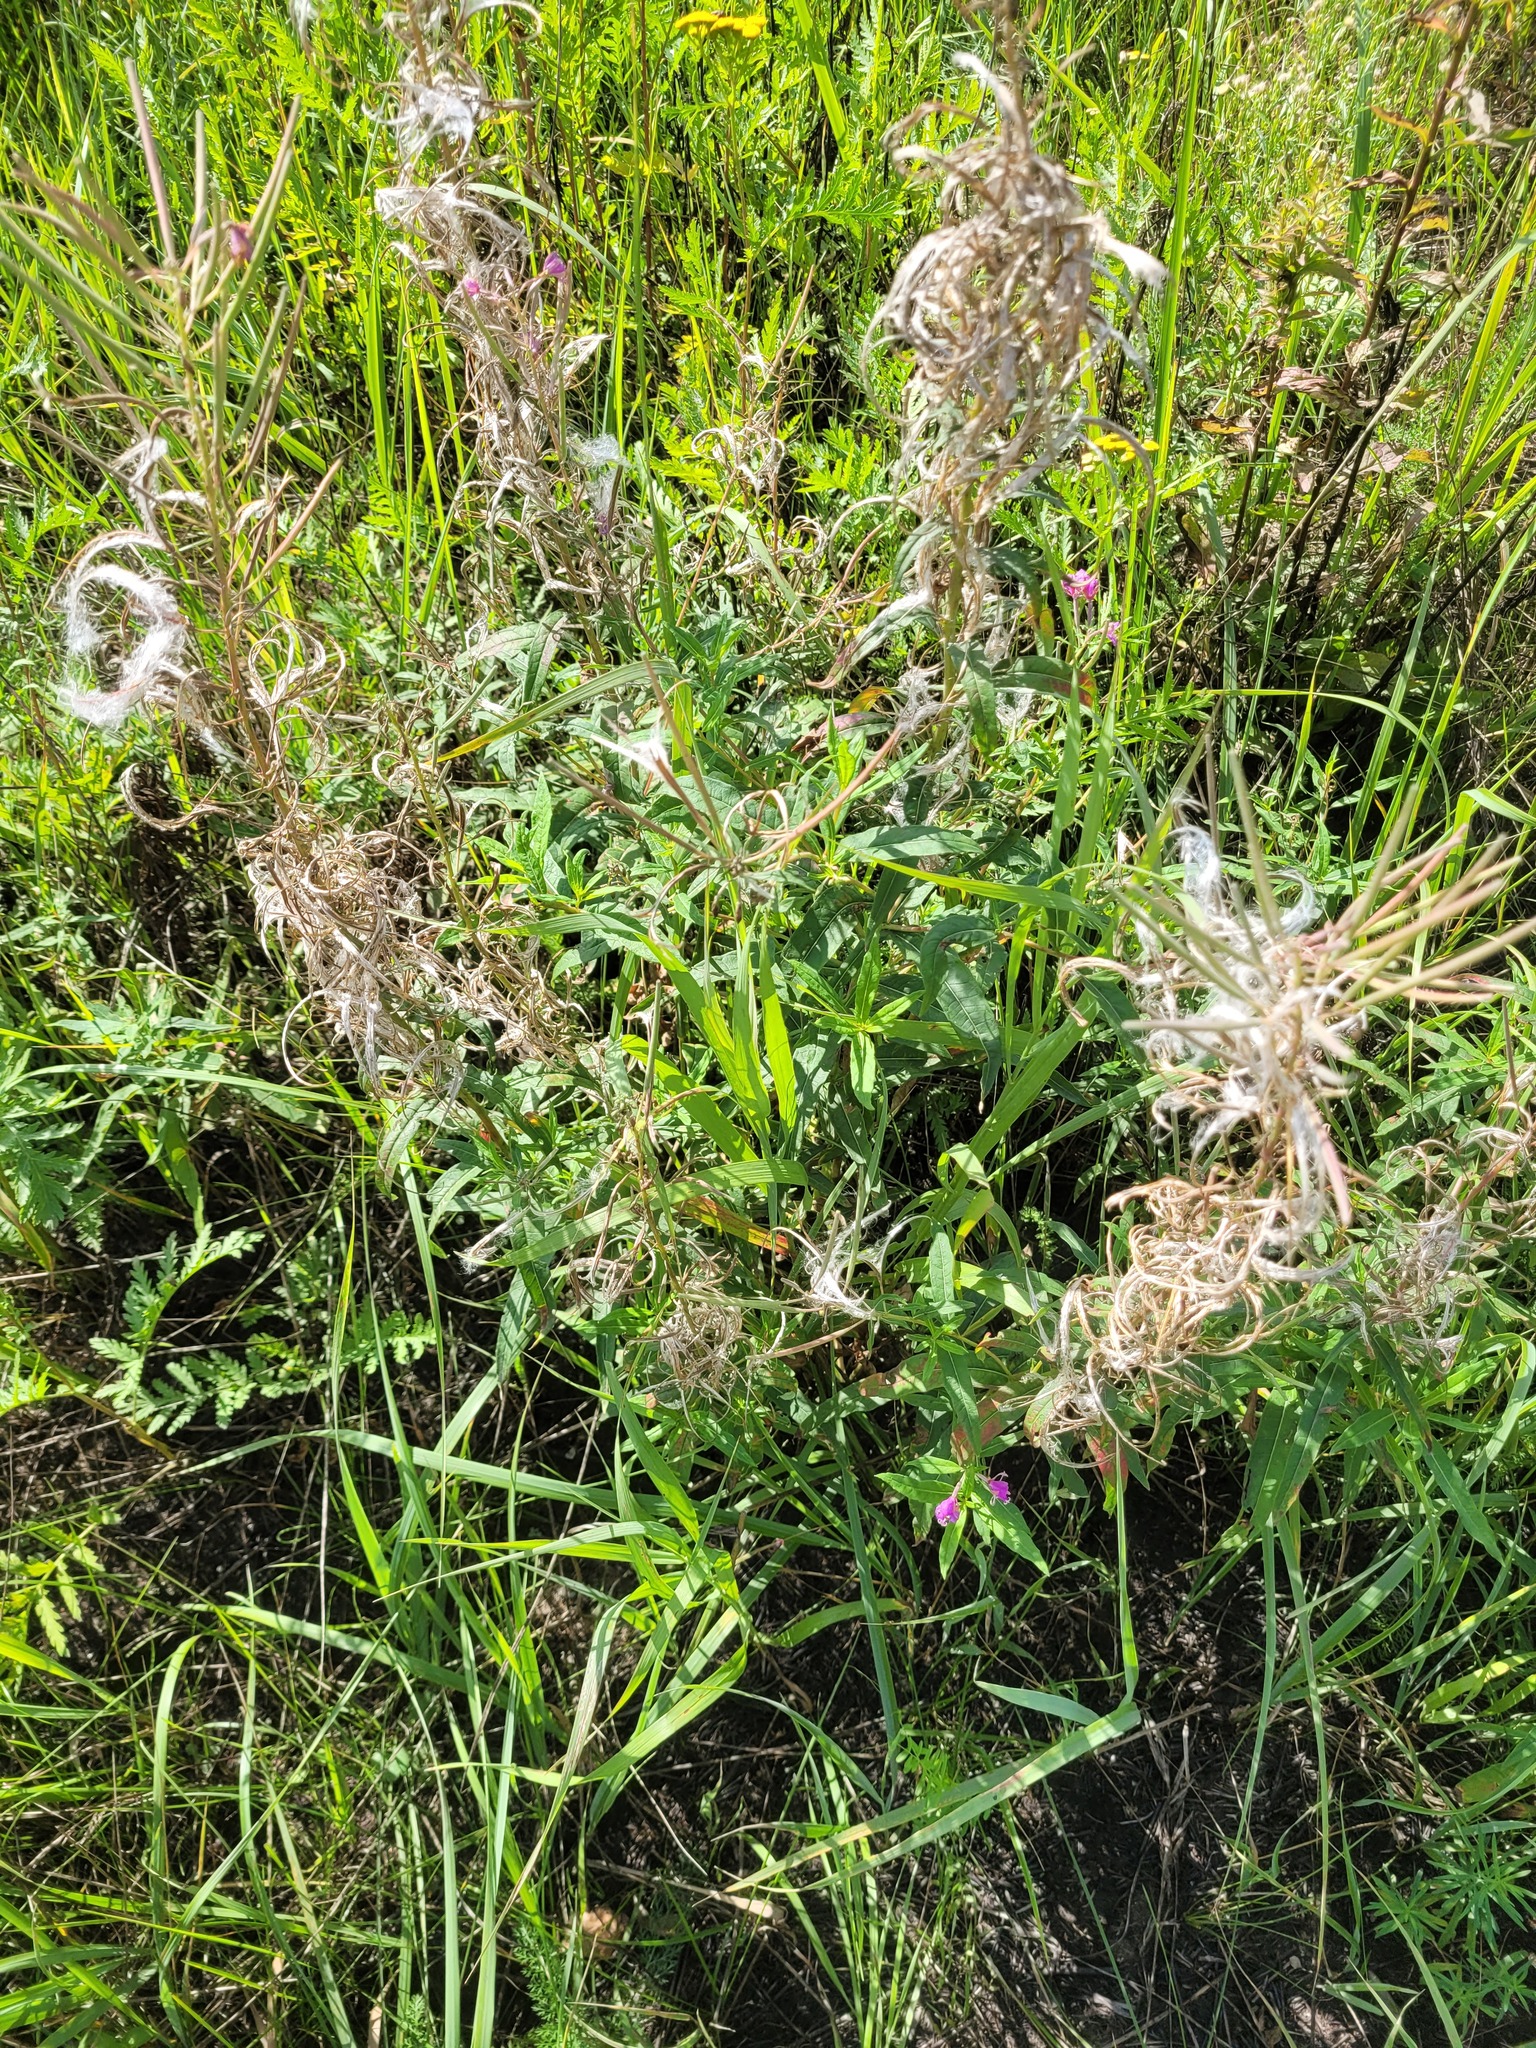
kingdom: Plantae
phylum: Tracheophyta
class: Magnoliopsida
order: Myrtales
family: Onagraceae
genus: Chamaenerion
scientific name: Chamaenerion angustifolium
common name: Fireweed
